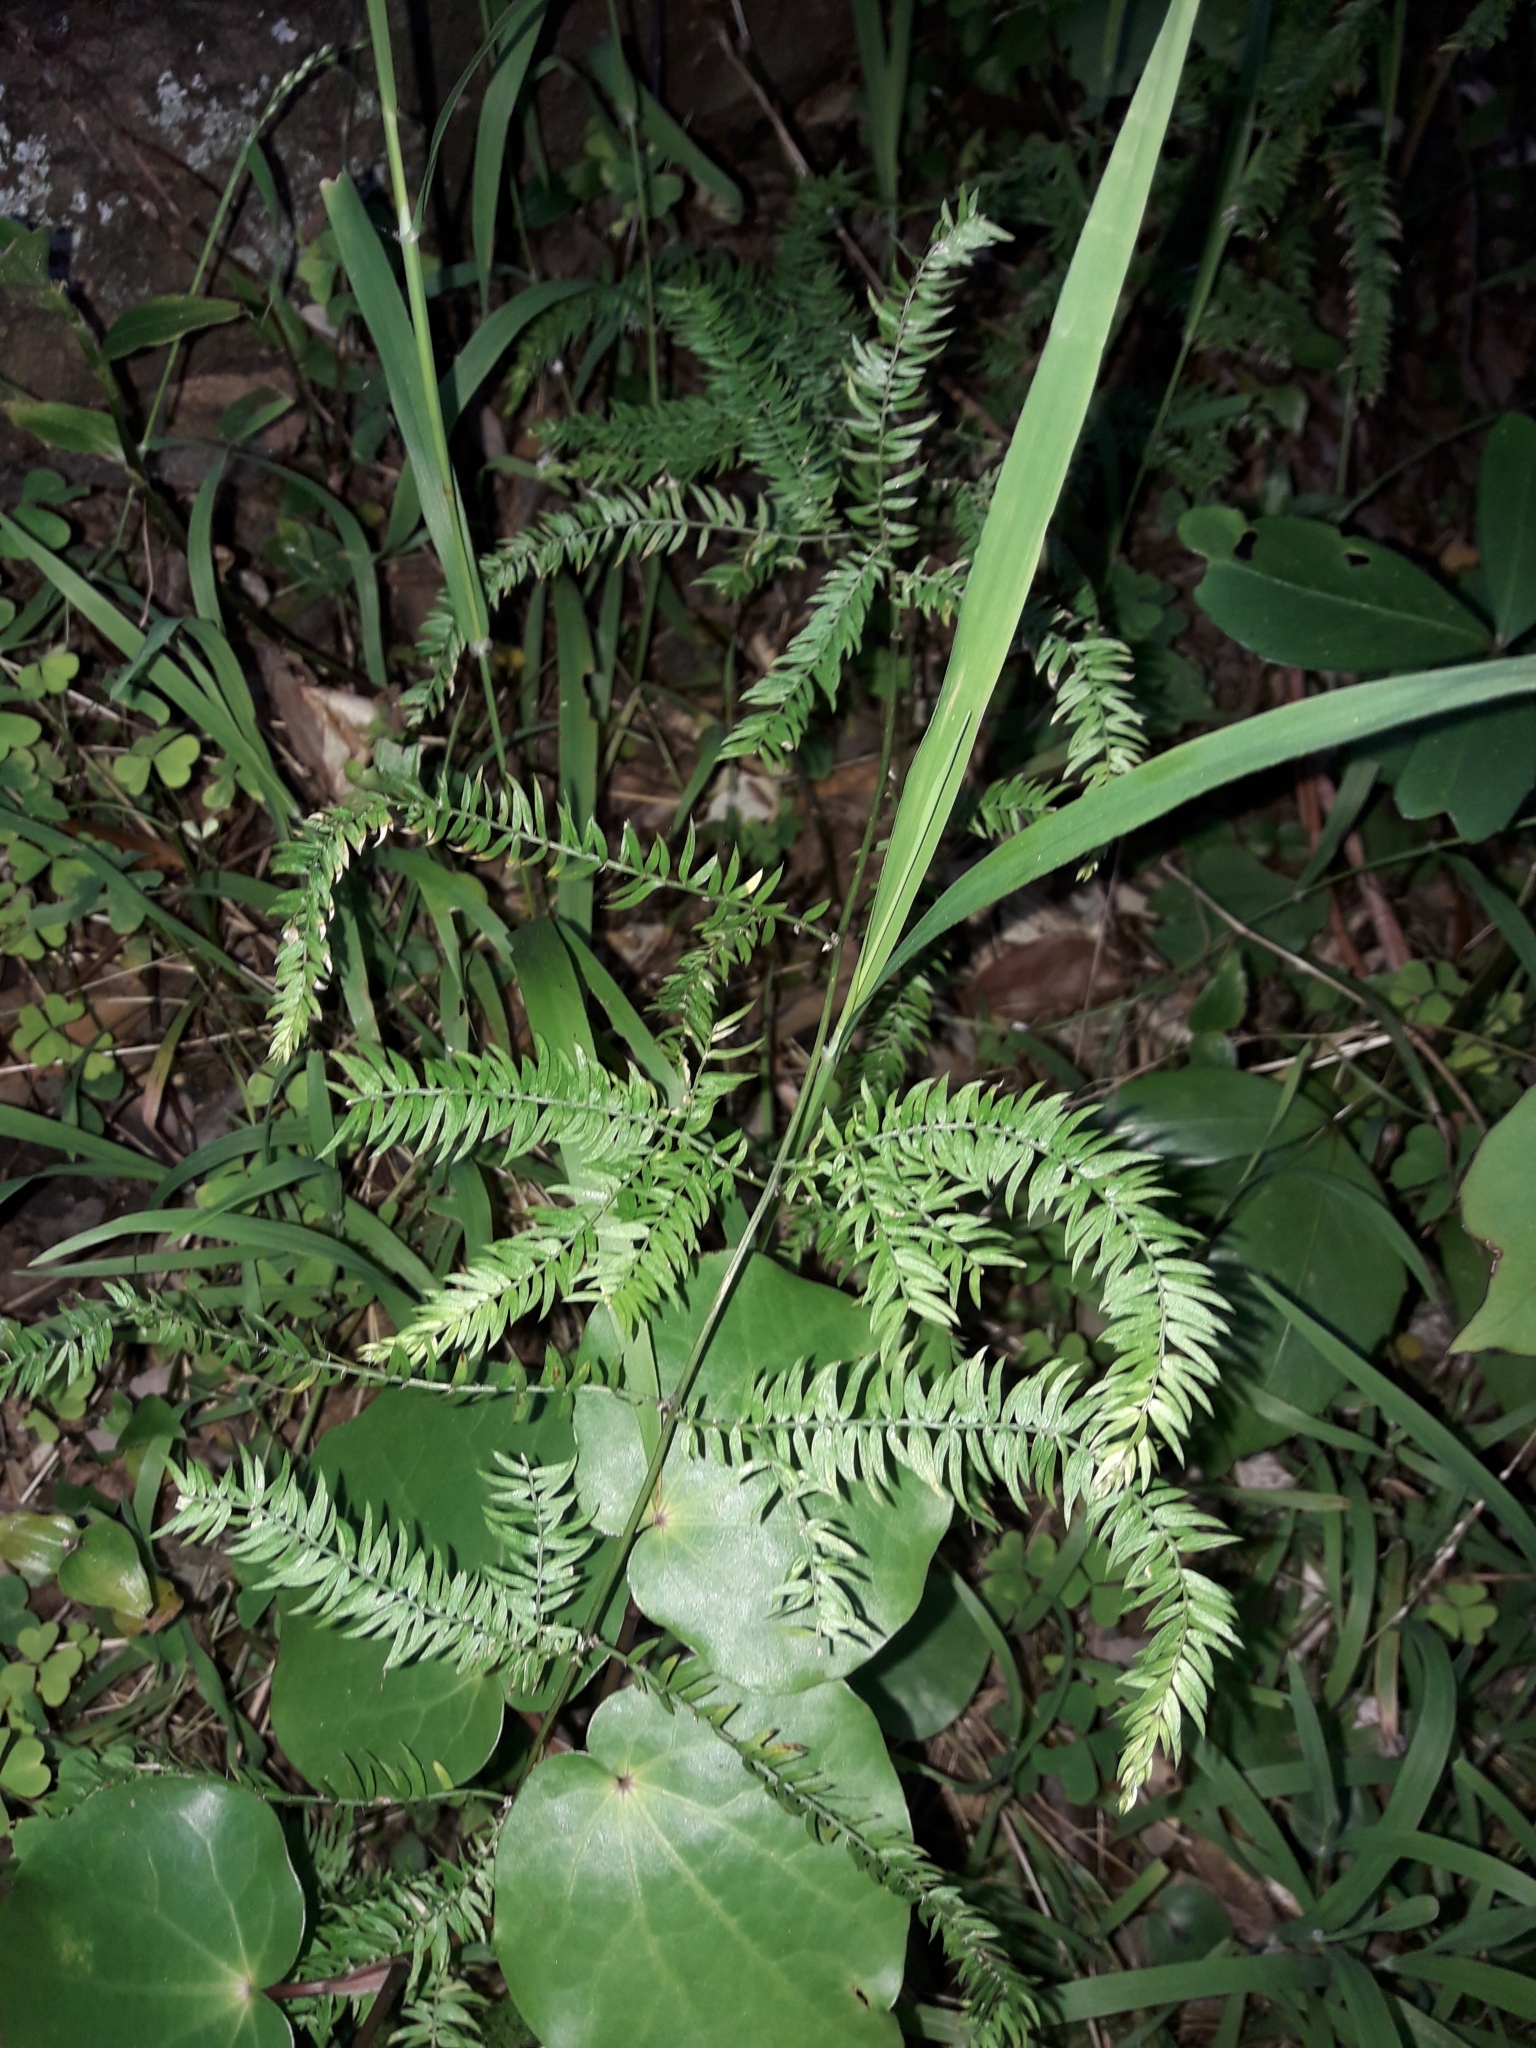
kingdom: Plantae
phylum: Tracheophyta
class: Liliopsida
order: Asparagales
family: Asparagaceae
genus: Asparagus
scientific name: Asparagus scandens
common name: Asparagus-fern
